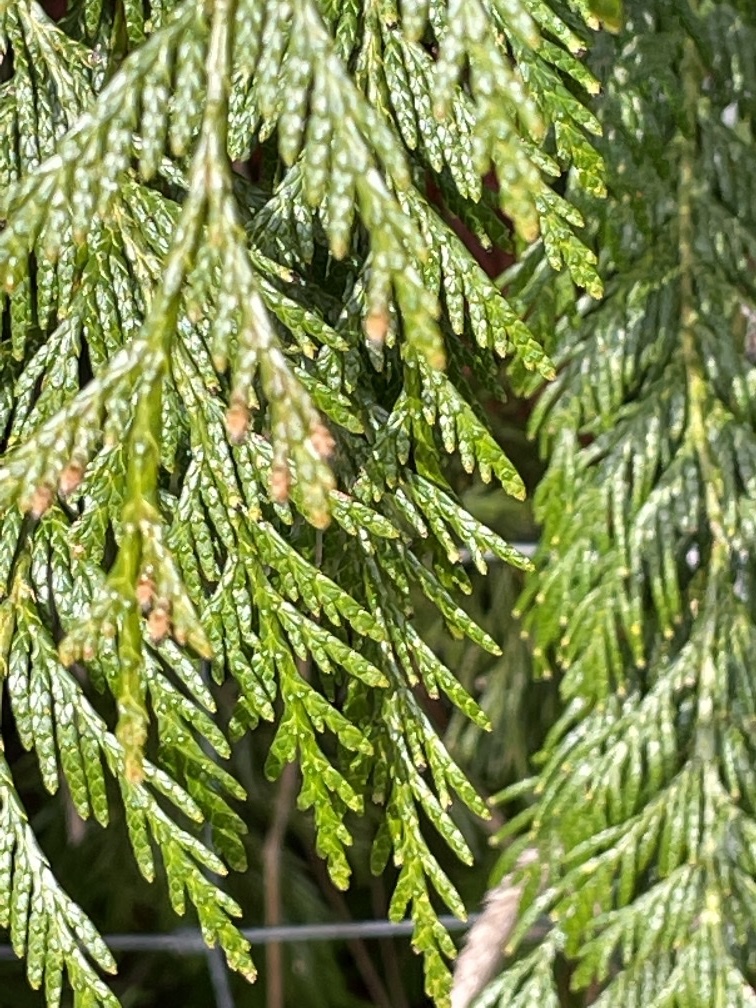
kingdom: Plantae
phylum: Tracheophyta
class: Pinopsida
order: Pinales
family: Cupressaceae
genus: Thuja
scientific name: Thuja plicata
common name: Western red-cedar
